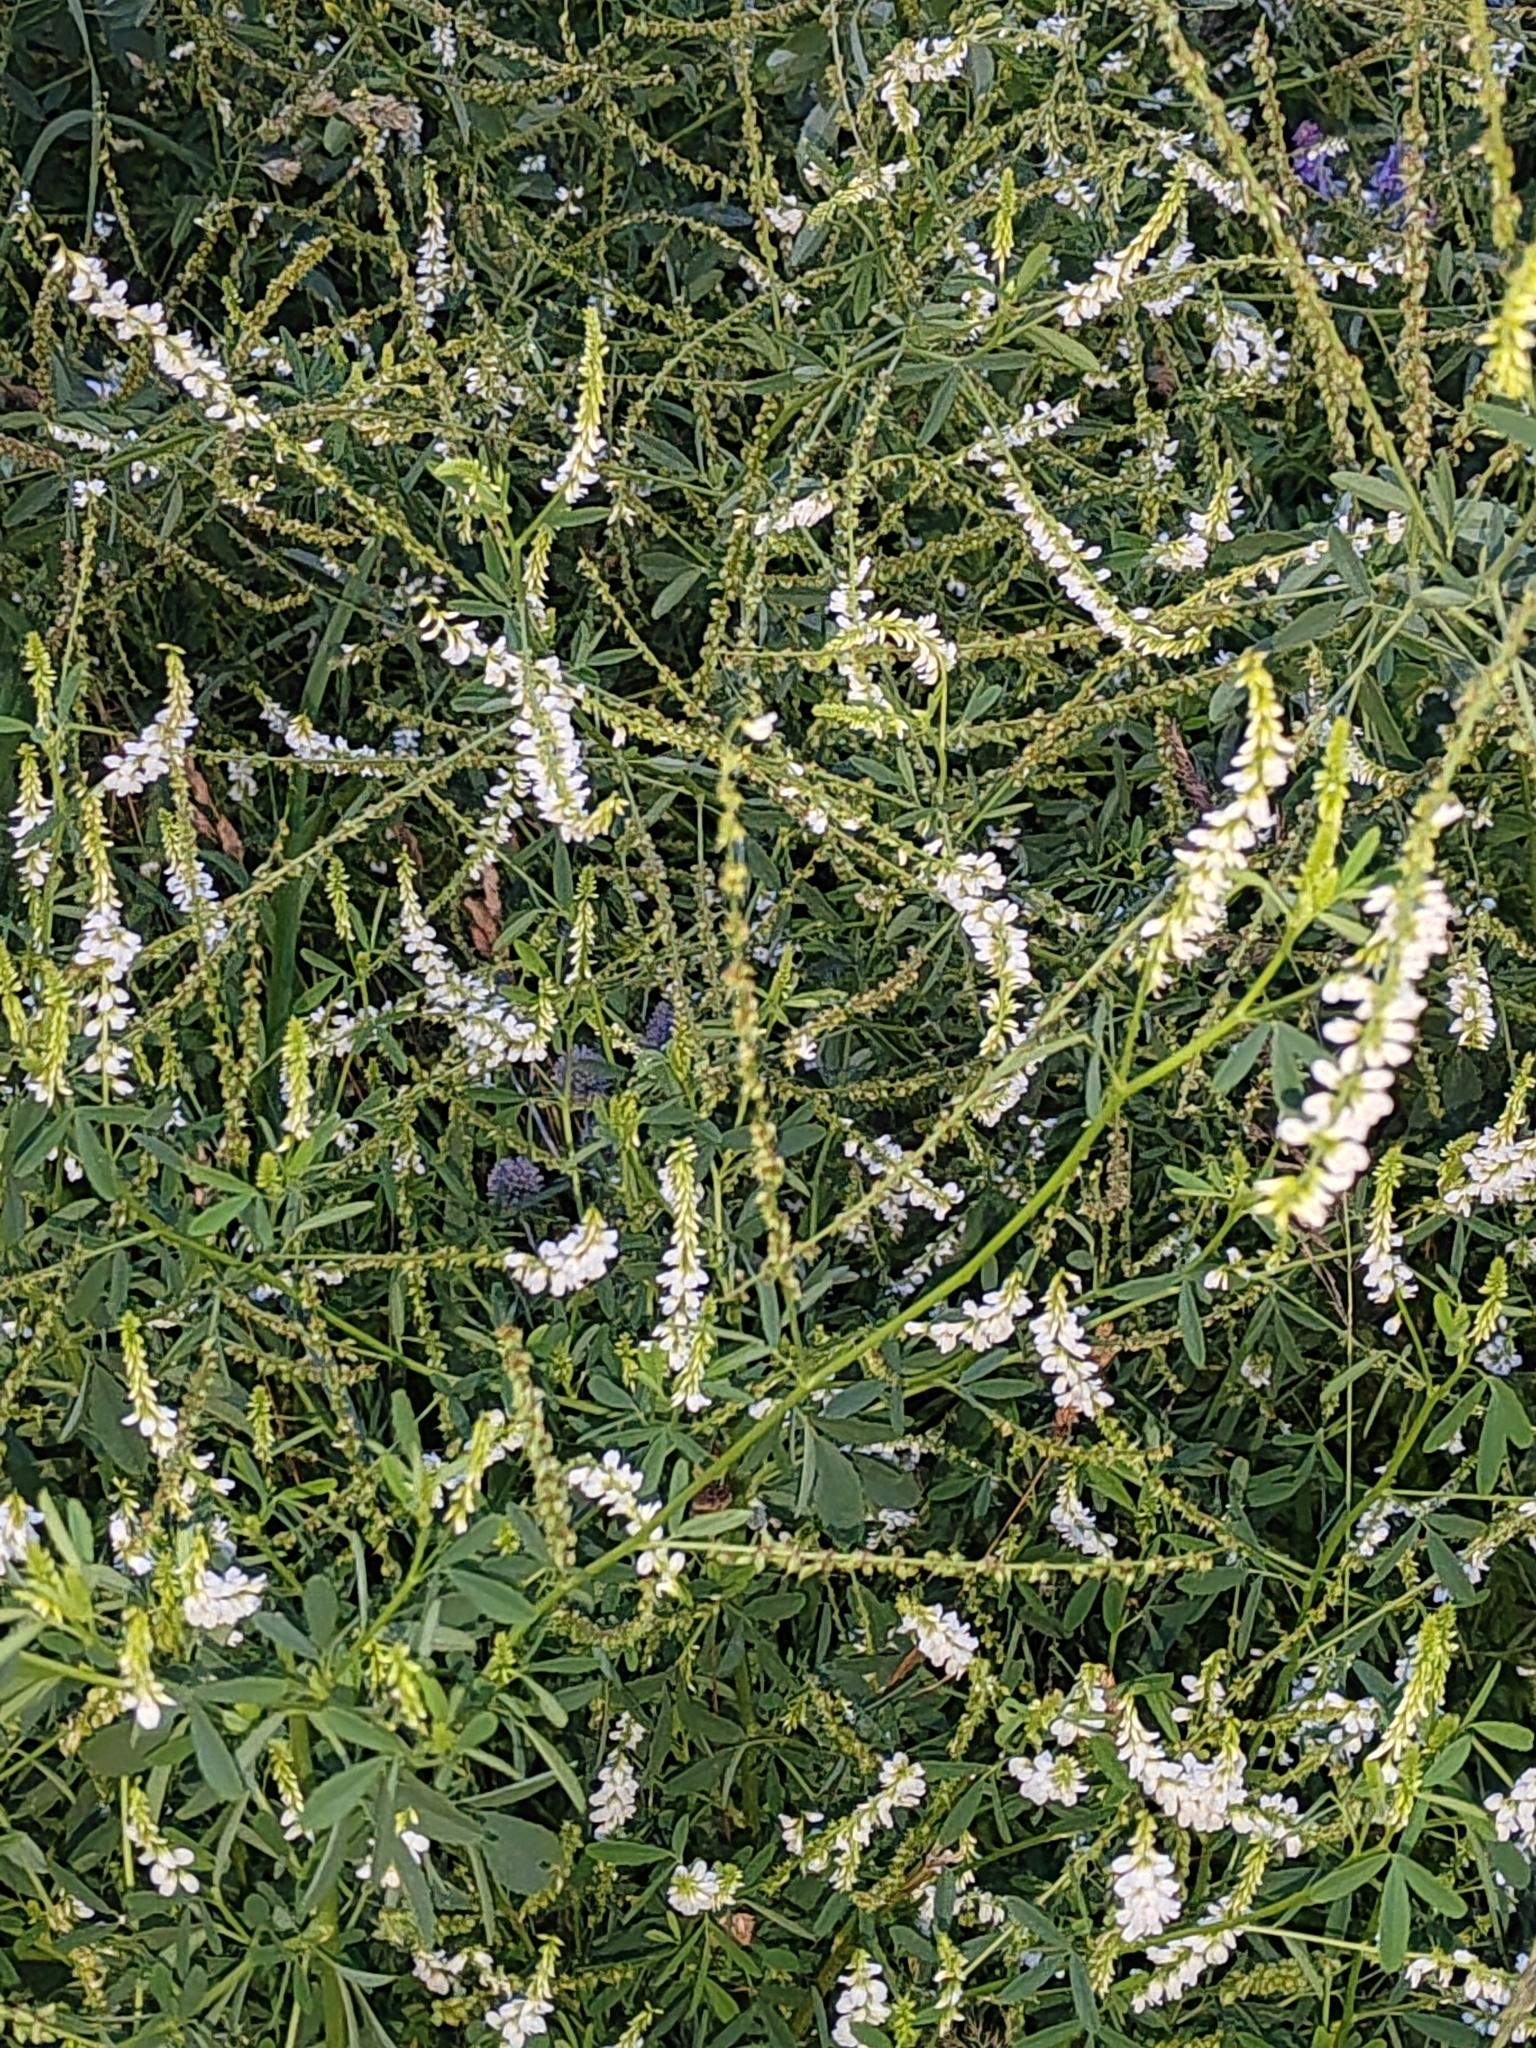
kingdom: Plantae
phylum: Tracheophyta
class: Magnoliopsida
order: Fabales
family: Fabaceae
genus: Melilotus
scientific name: Melilotus albus
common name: White melilot
